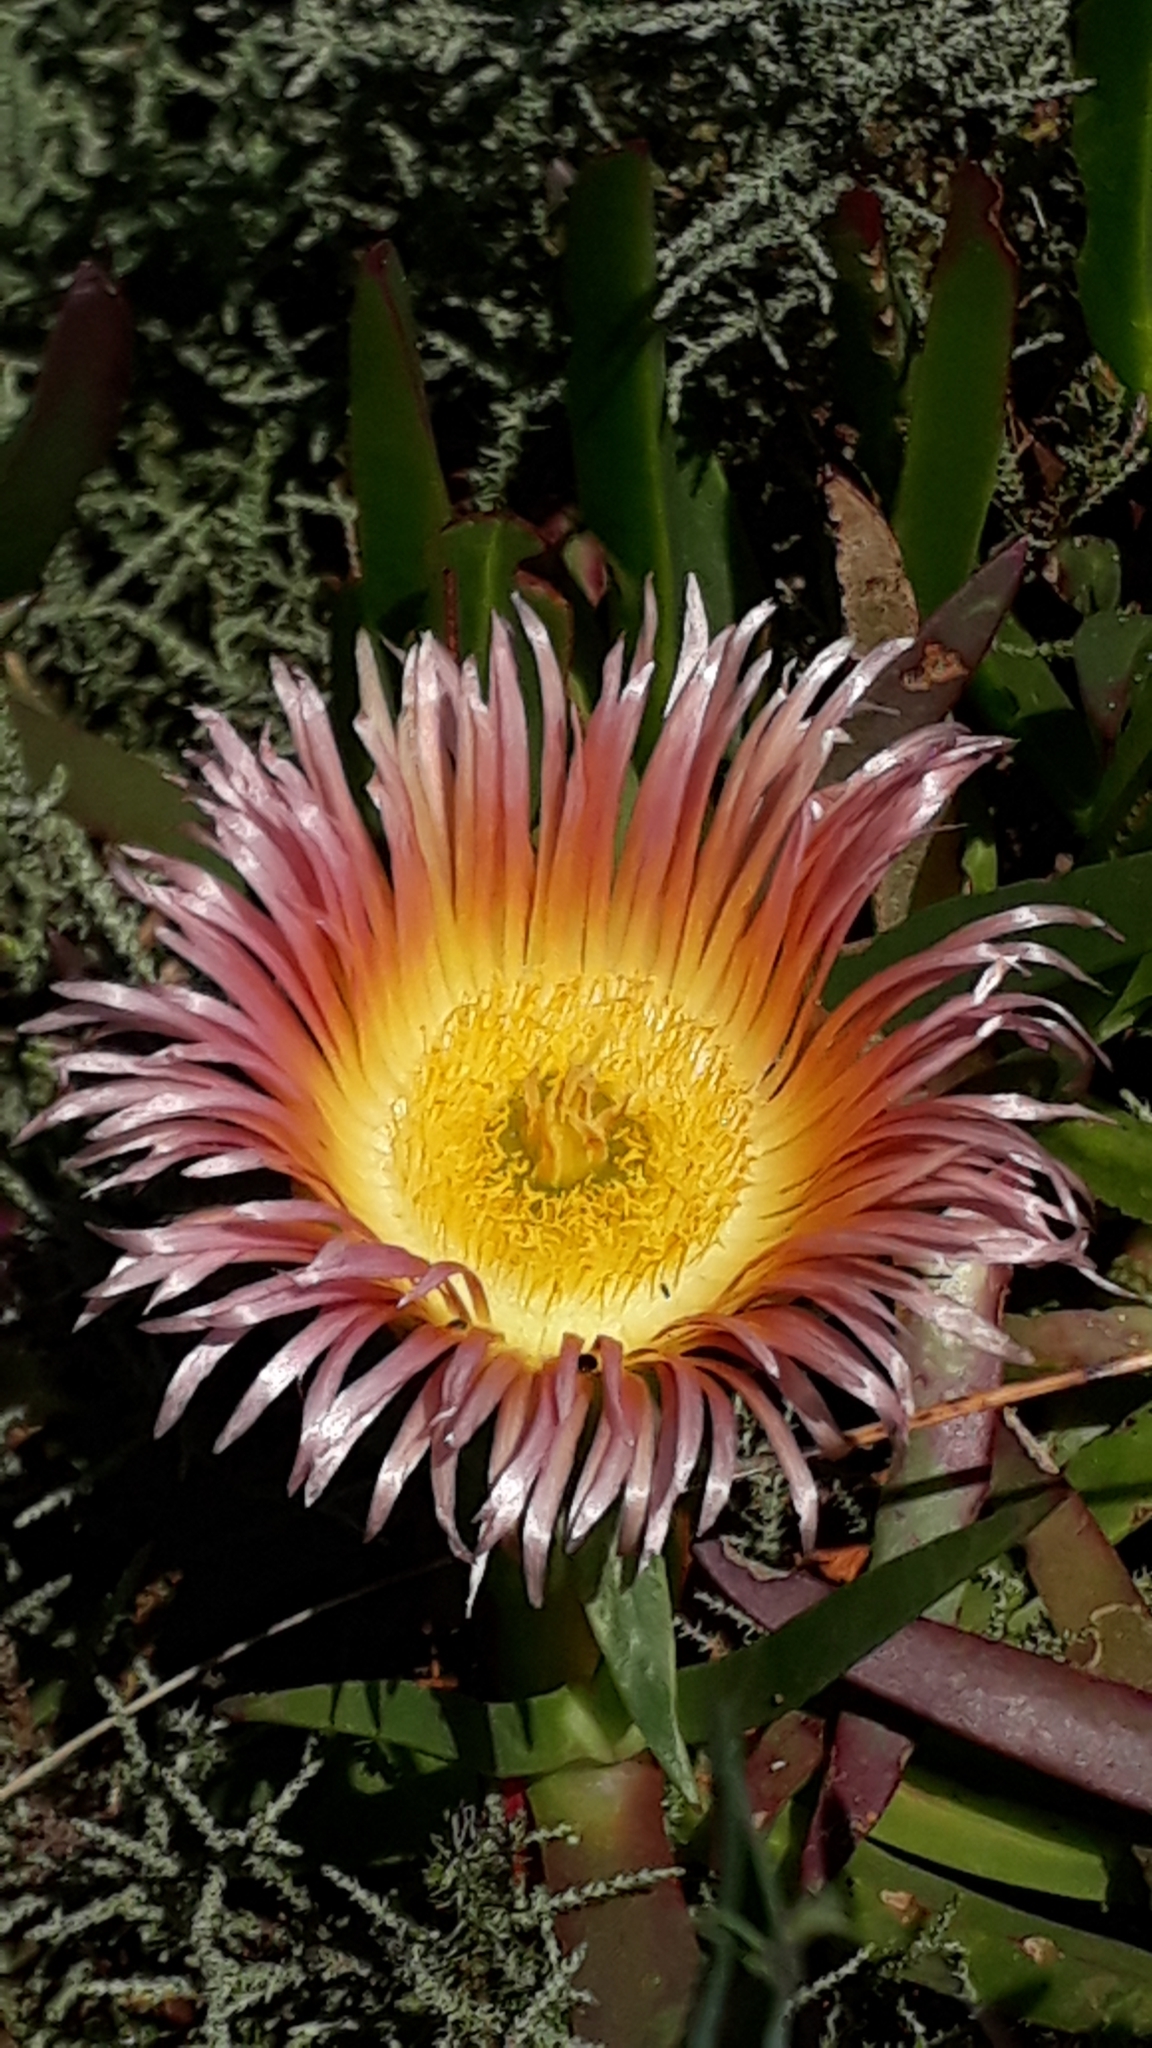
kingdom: Plantae
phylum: Tracheophyta
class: Magnoliopsida
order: Caryophyllales
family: Aizoaceae
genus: Carpobrotus
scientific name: Carpobrotus edulis
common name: Hottentot-fig
